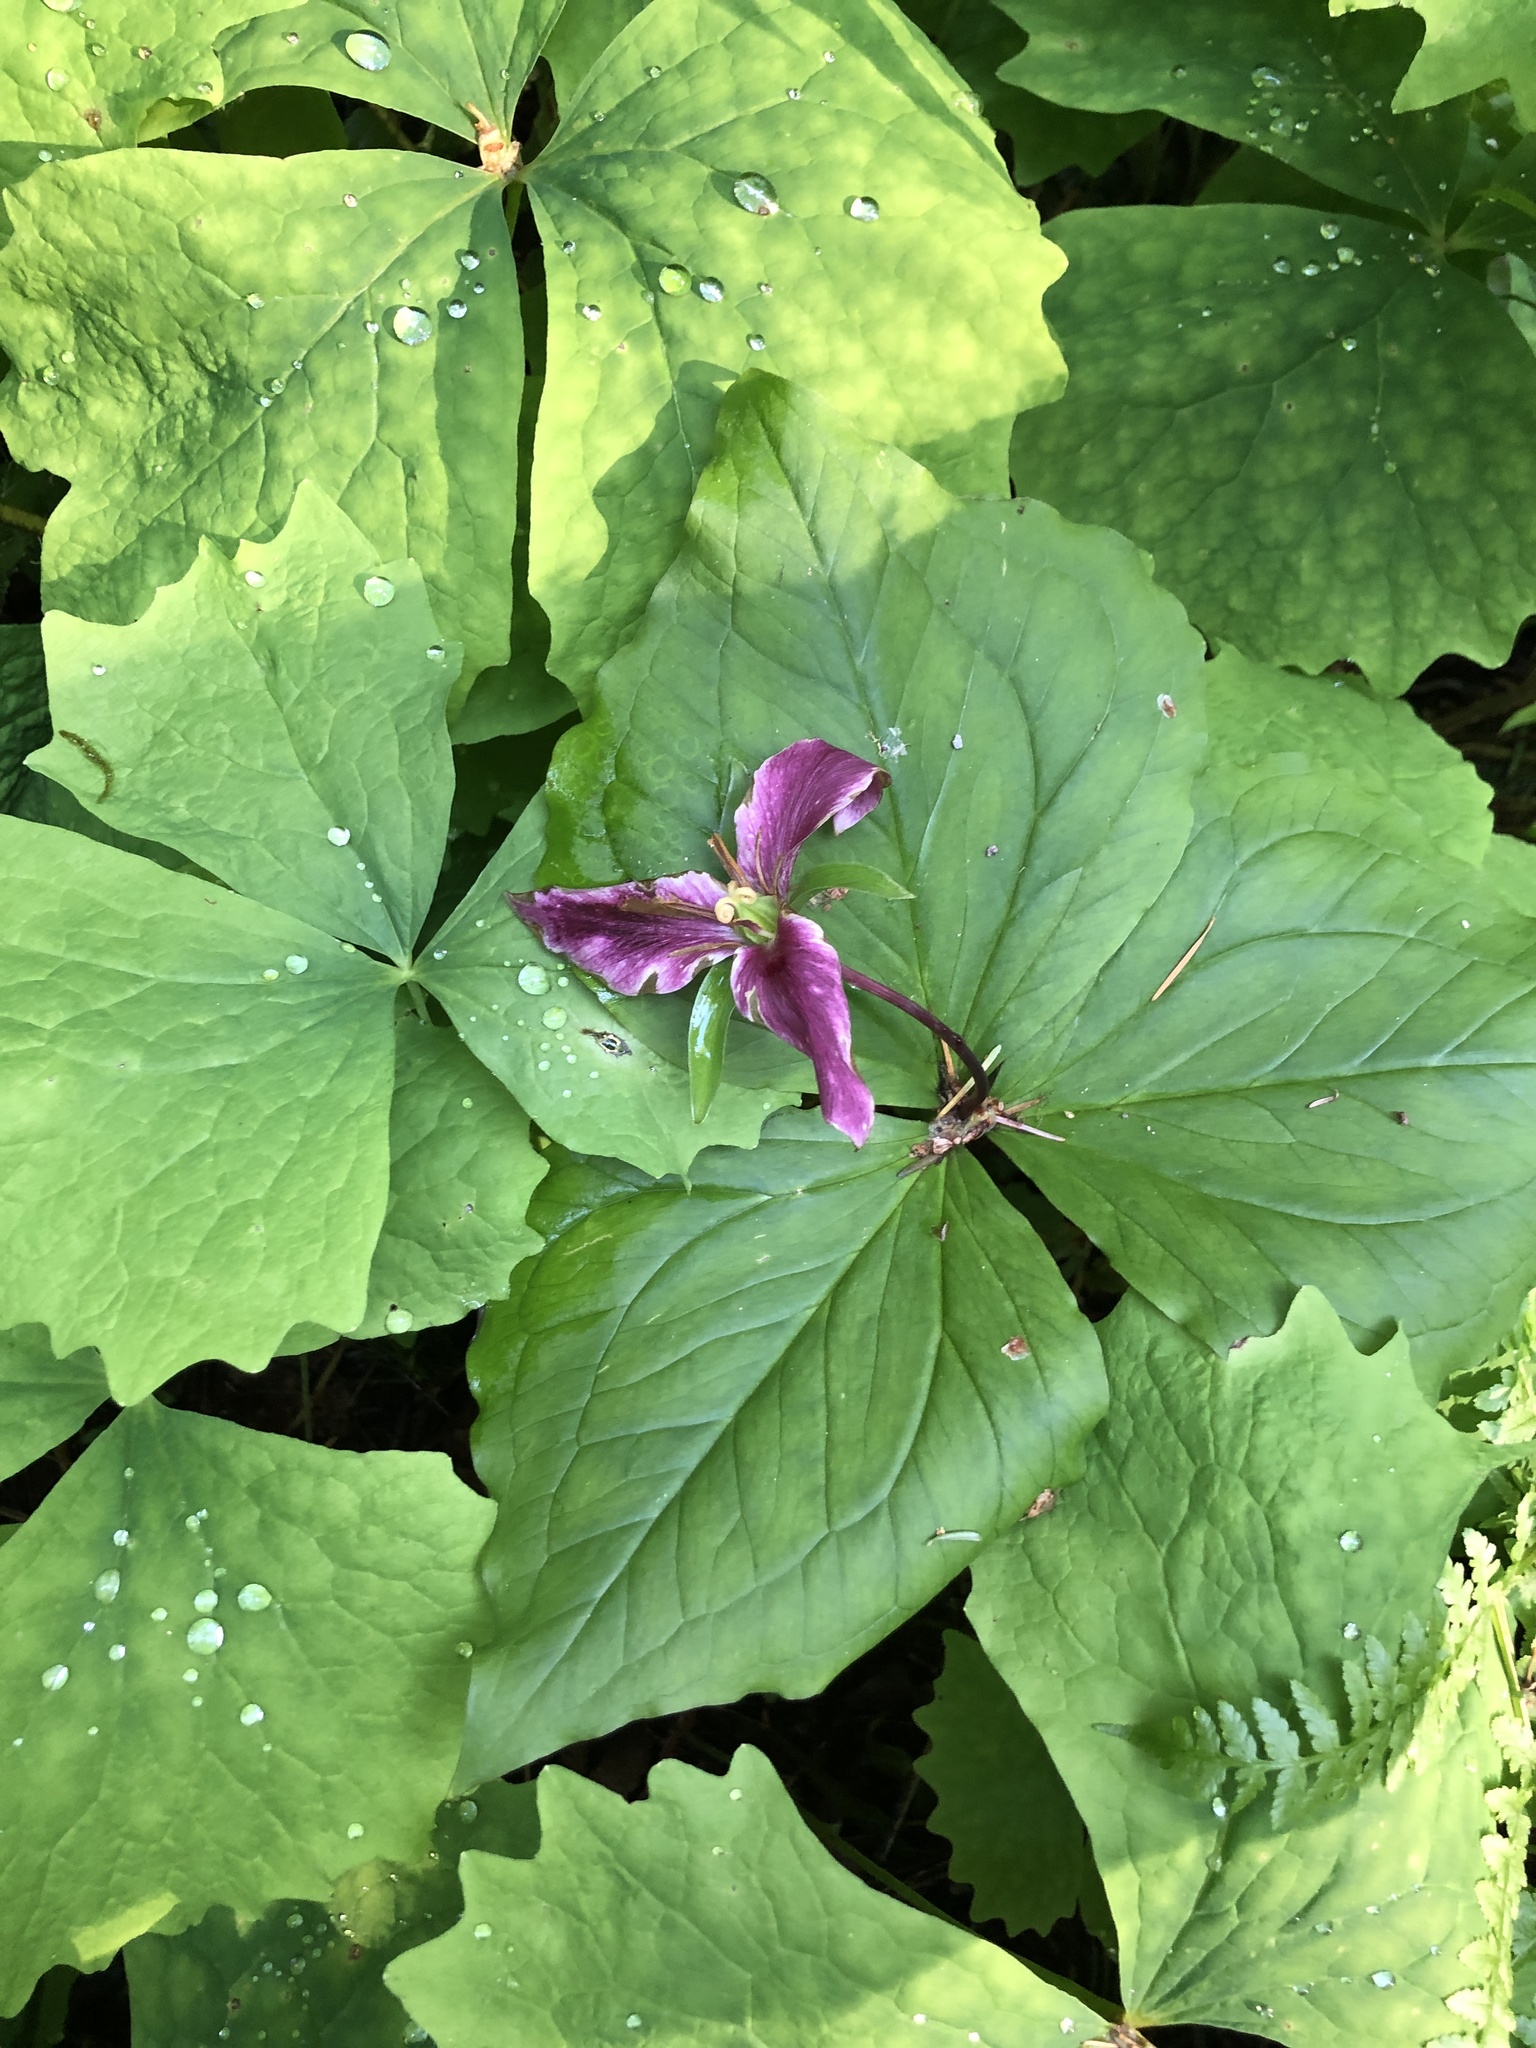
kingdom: Plantae
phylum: Tracheophyta
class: Liliopsida
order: Liliales
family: Melanthiaceae
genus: Trillium
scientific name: Trillium ovatum
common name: Pacific trillium
